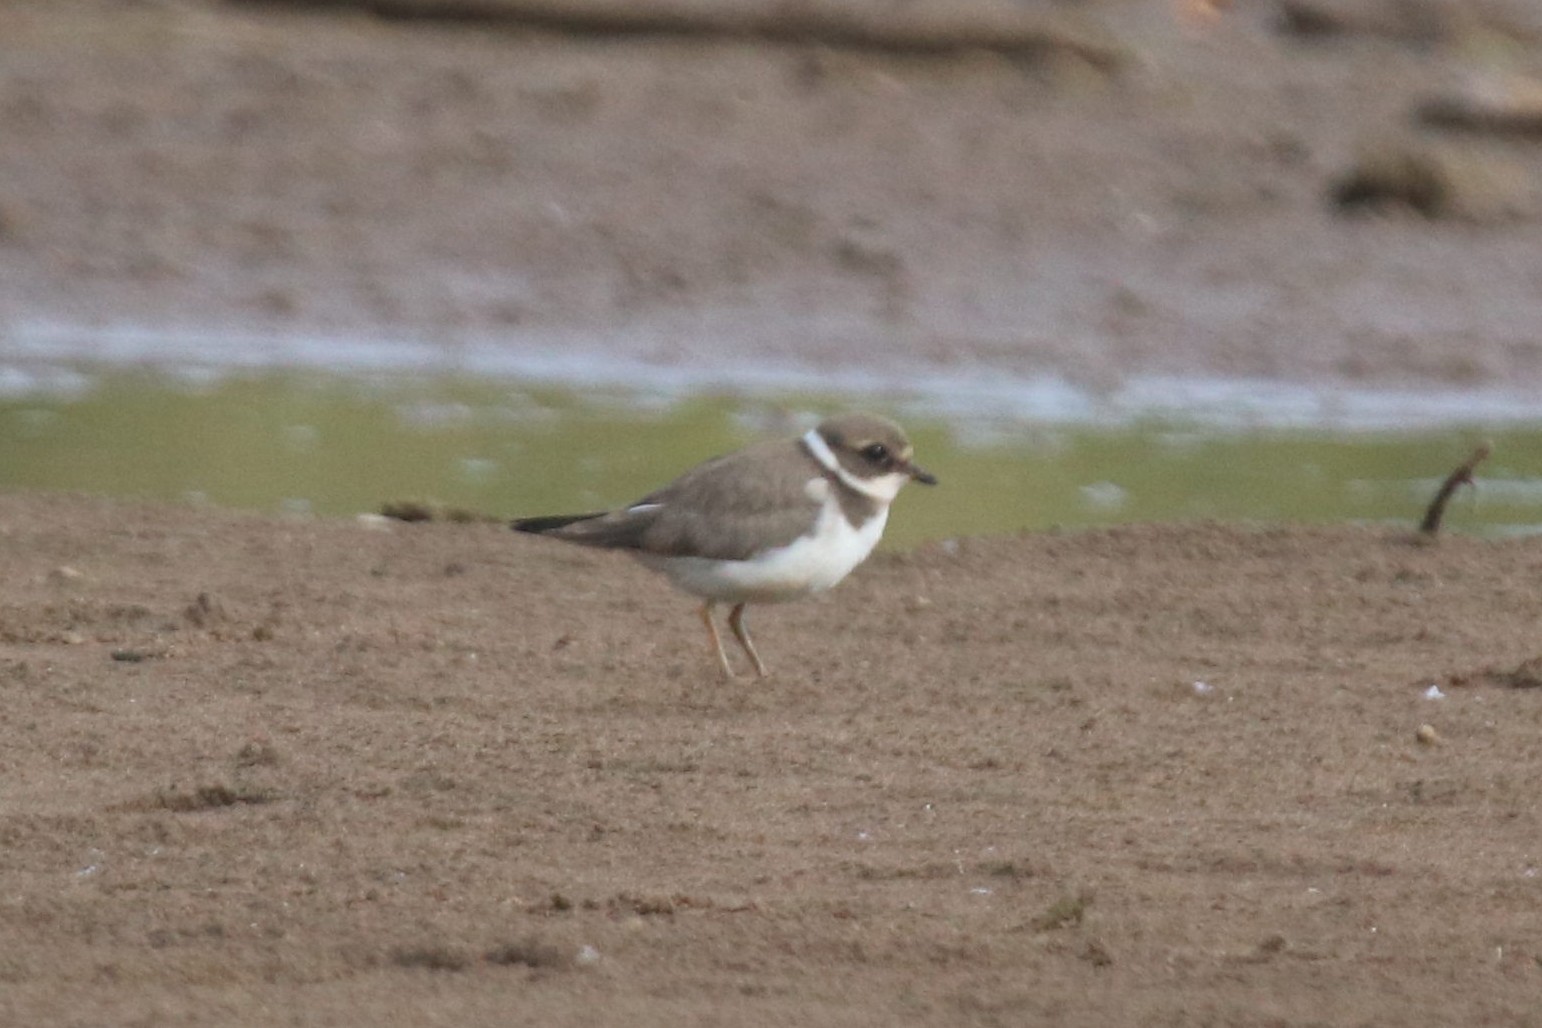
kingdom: Animalia
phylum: Chordata
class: Aves
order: Charadriiformes
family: Charadriidae
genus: Charadrius
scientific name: Charadrius hiaticula
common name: Common ringed plover
